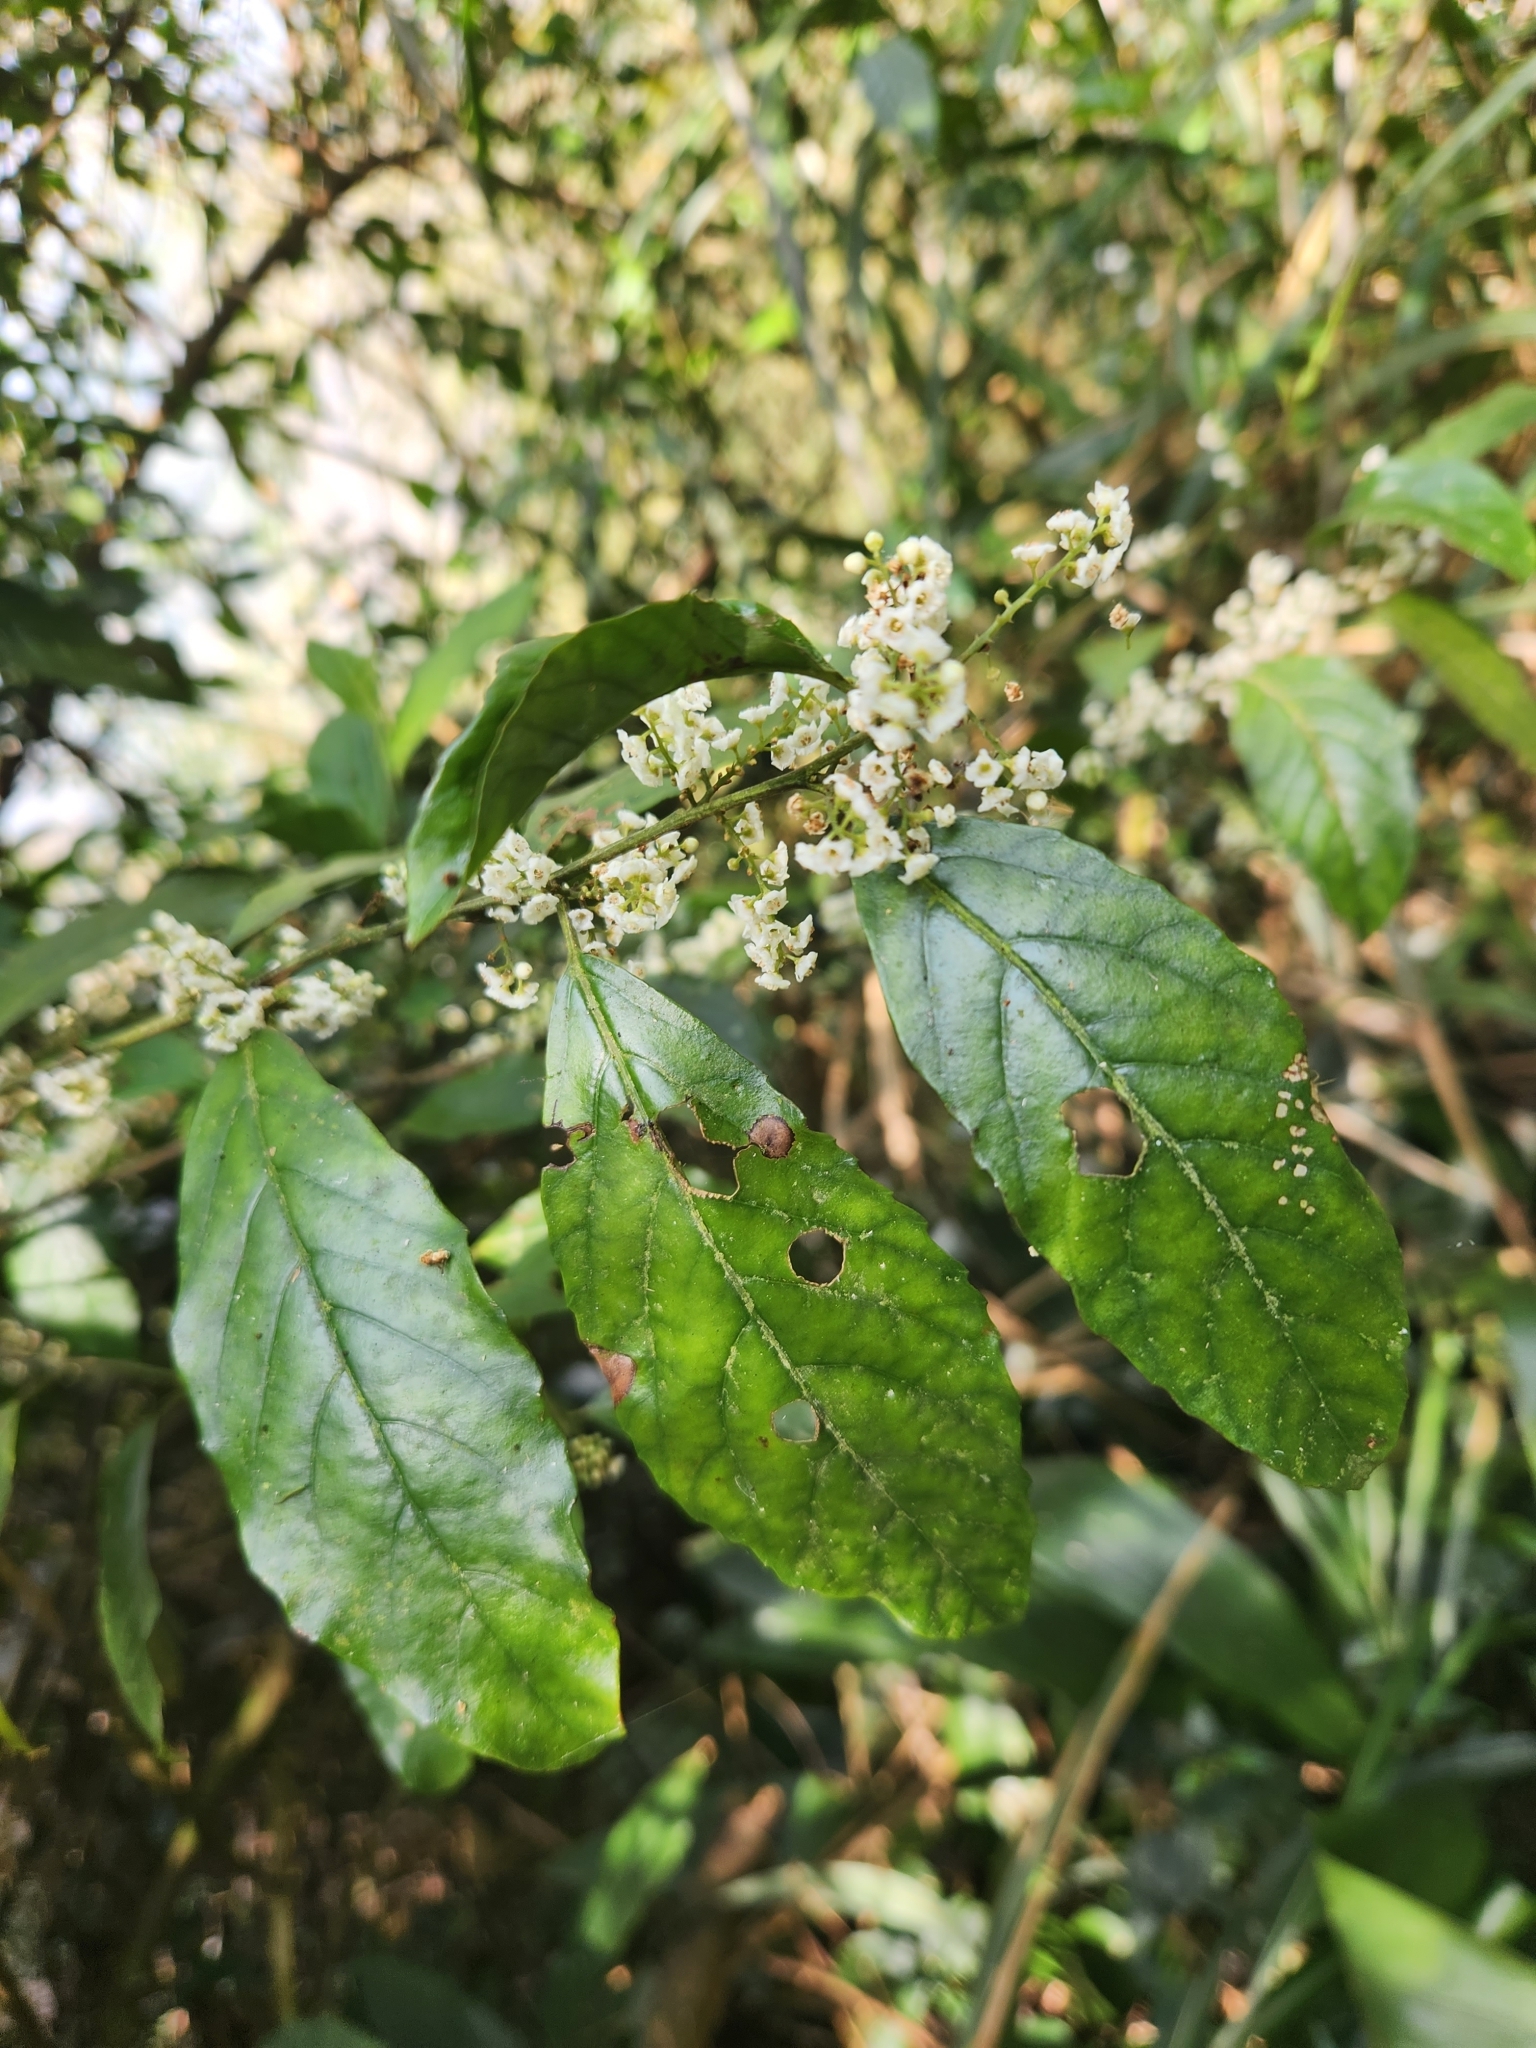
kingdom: Plantae
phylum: Tracheophyta
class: Magnoliopsida
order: Ericales
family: Primulaceae
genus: Maesa
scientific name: Maesa perlaria
